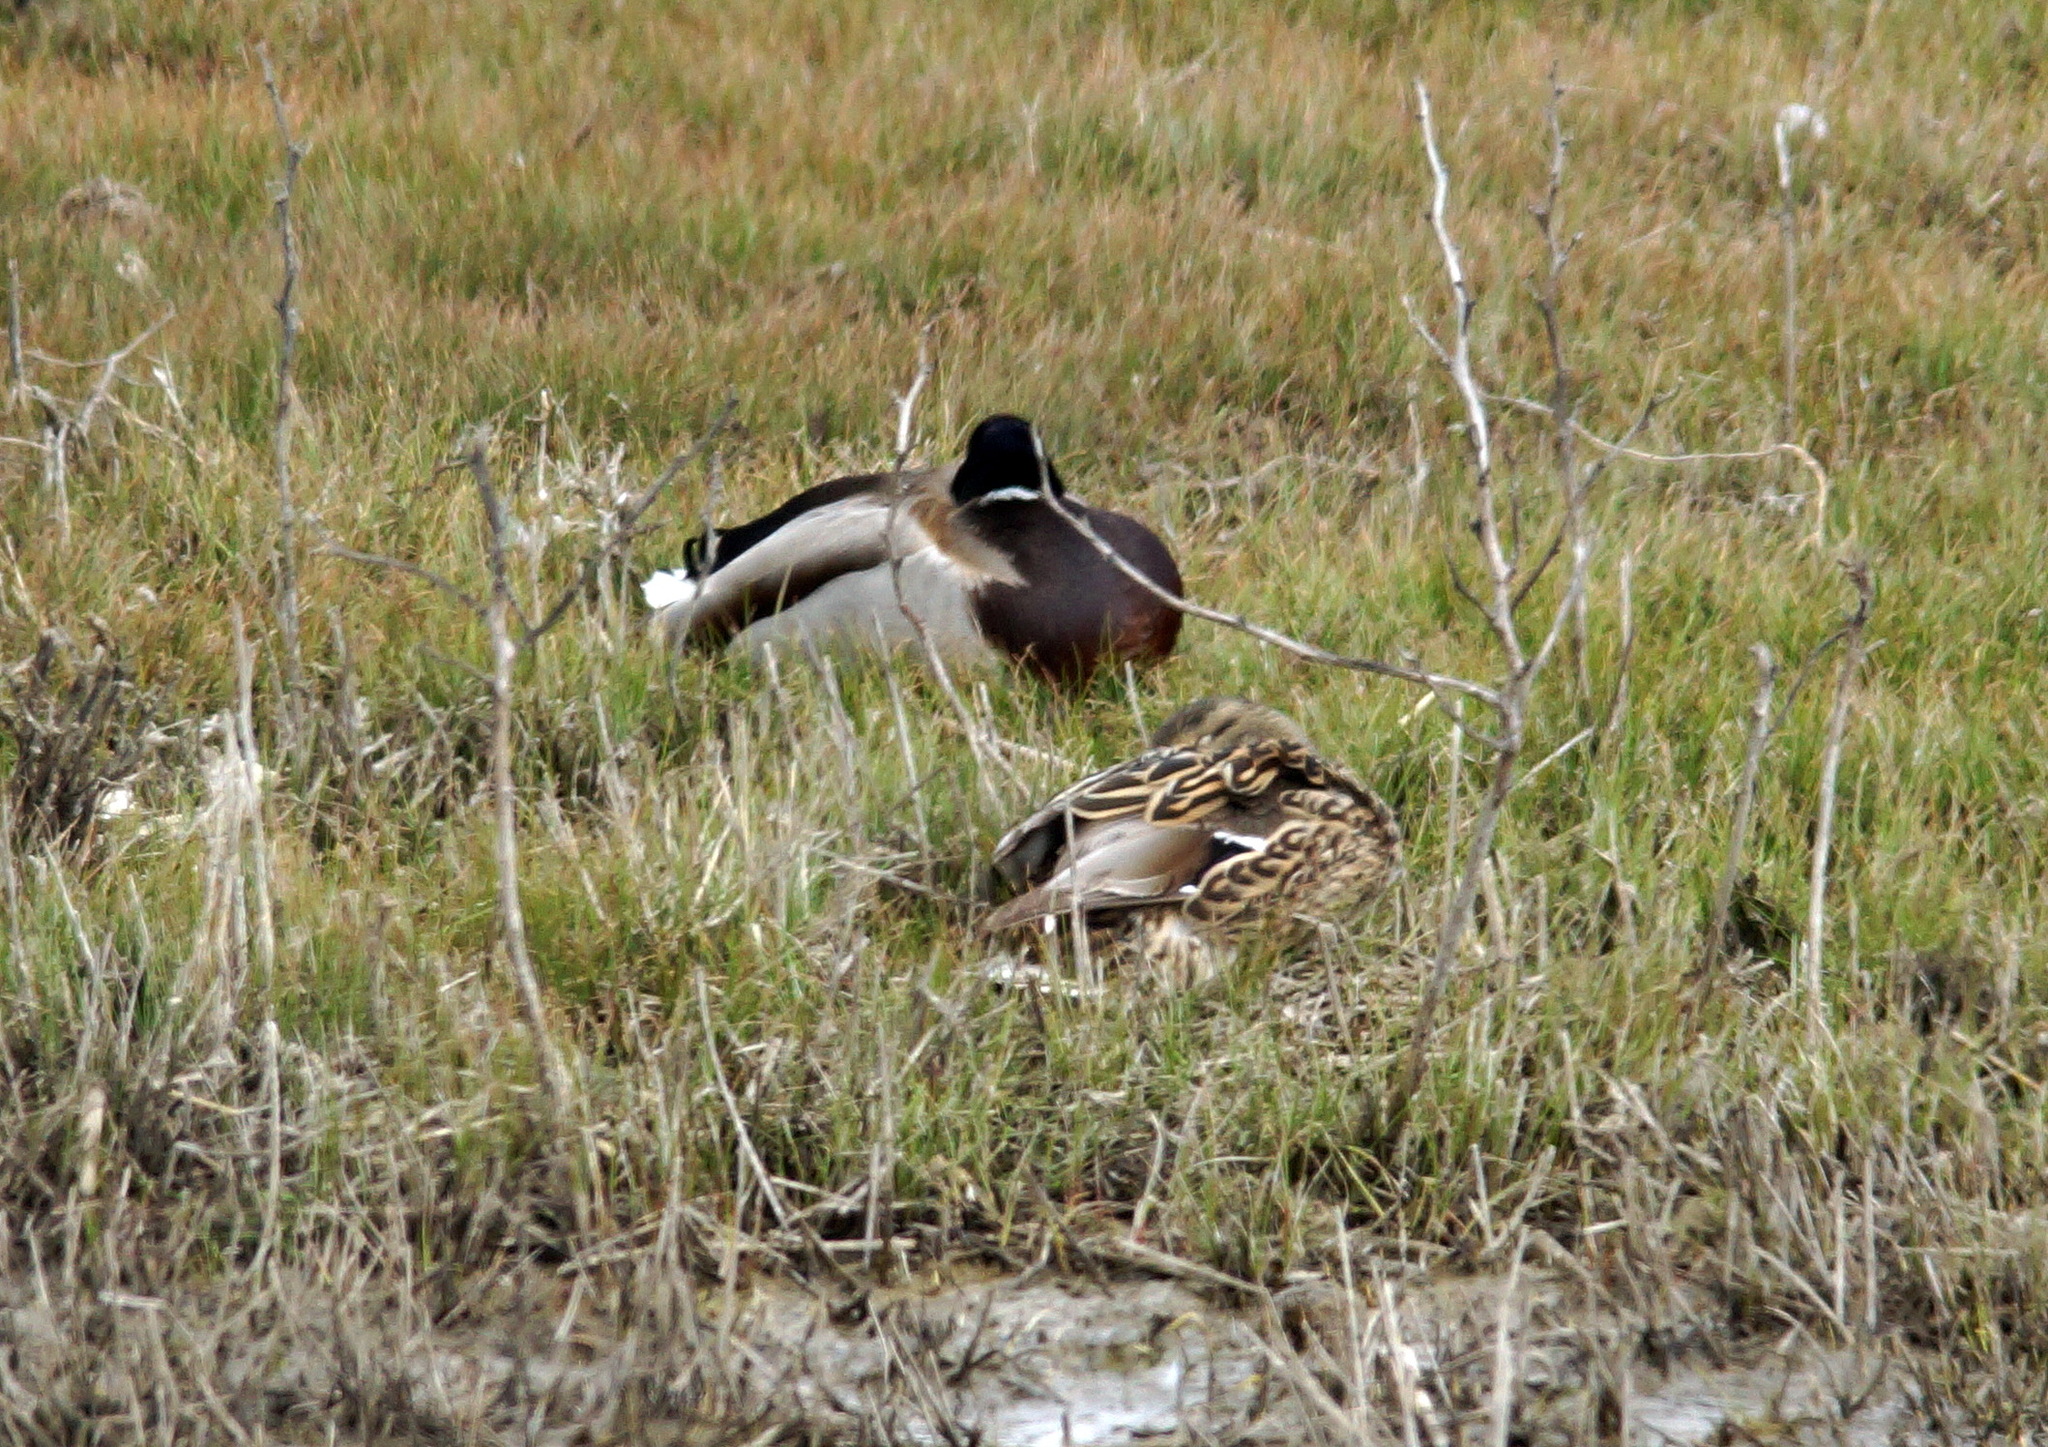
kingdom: Animalia
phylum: Chordata
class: Aves
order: Anseriformes
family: Anatidae
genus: Anas
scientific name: Anas platyrhynchos
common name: Mallard
